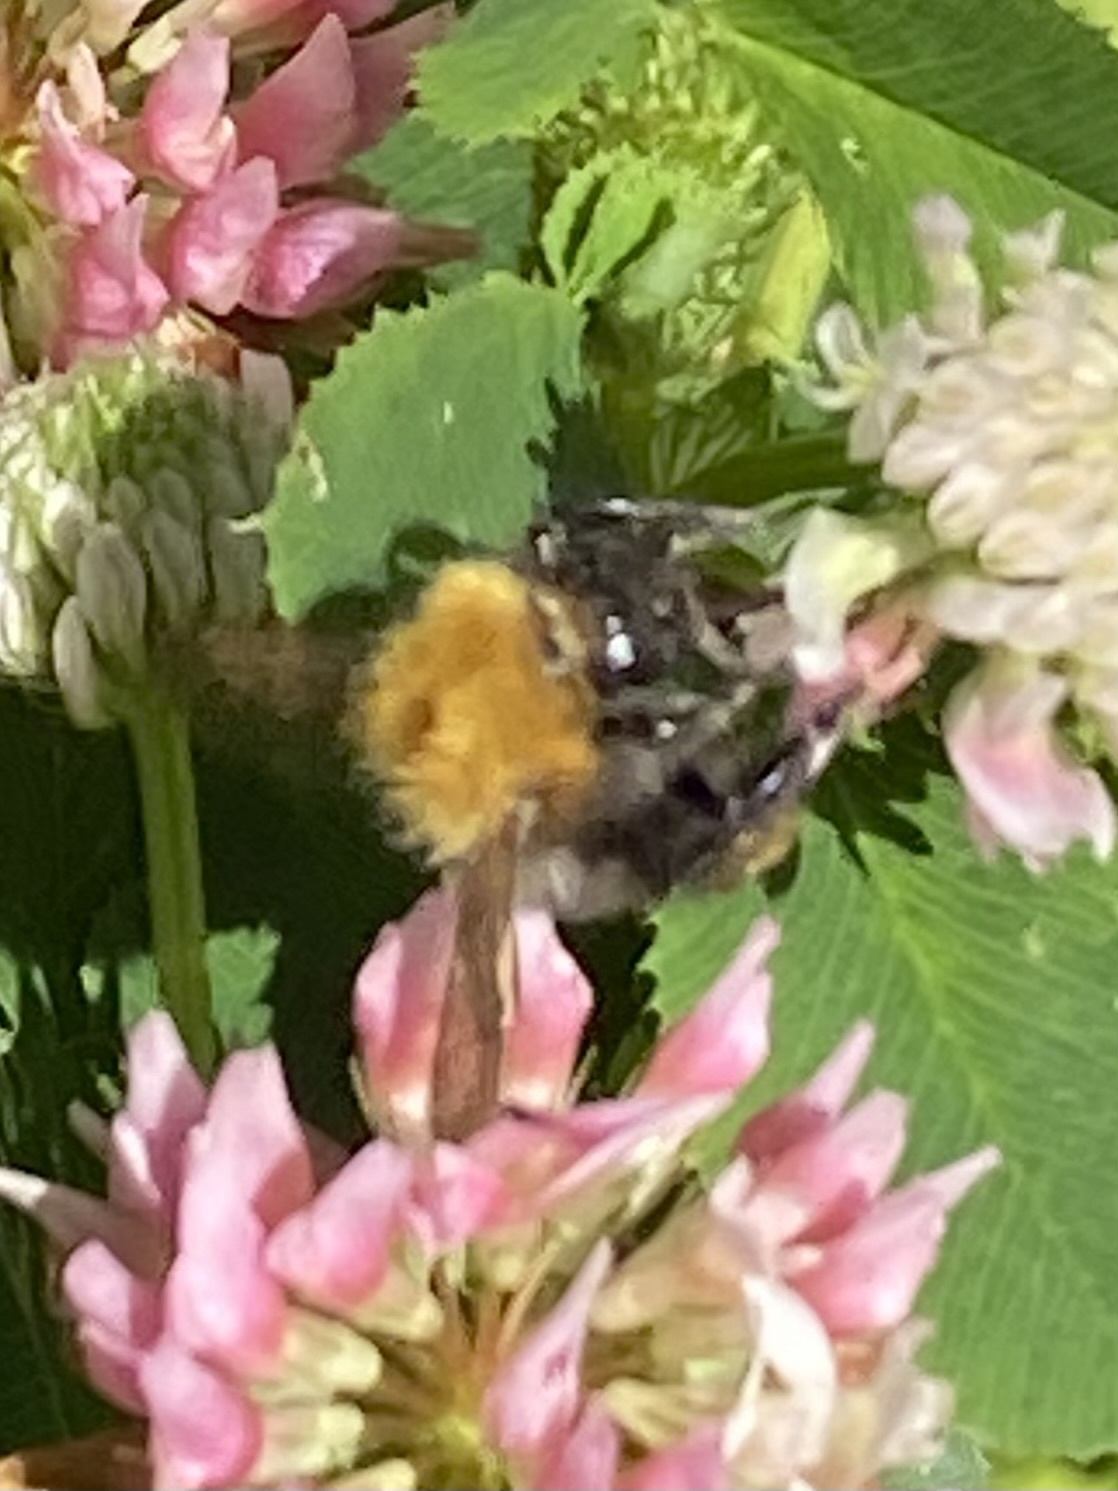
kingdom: Animalia
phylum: Arthropoda
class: Insecta
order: Hymenoptera
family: Apidae
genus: Bombus
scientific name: Bombus pascuorum
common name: Common carder bee
